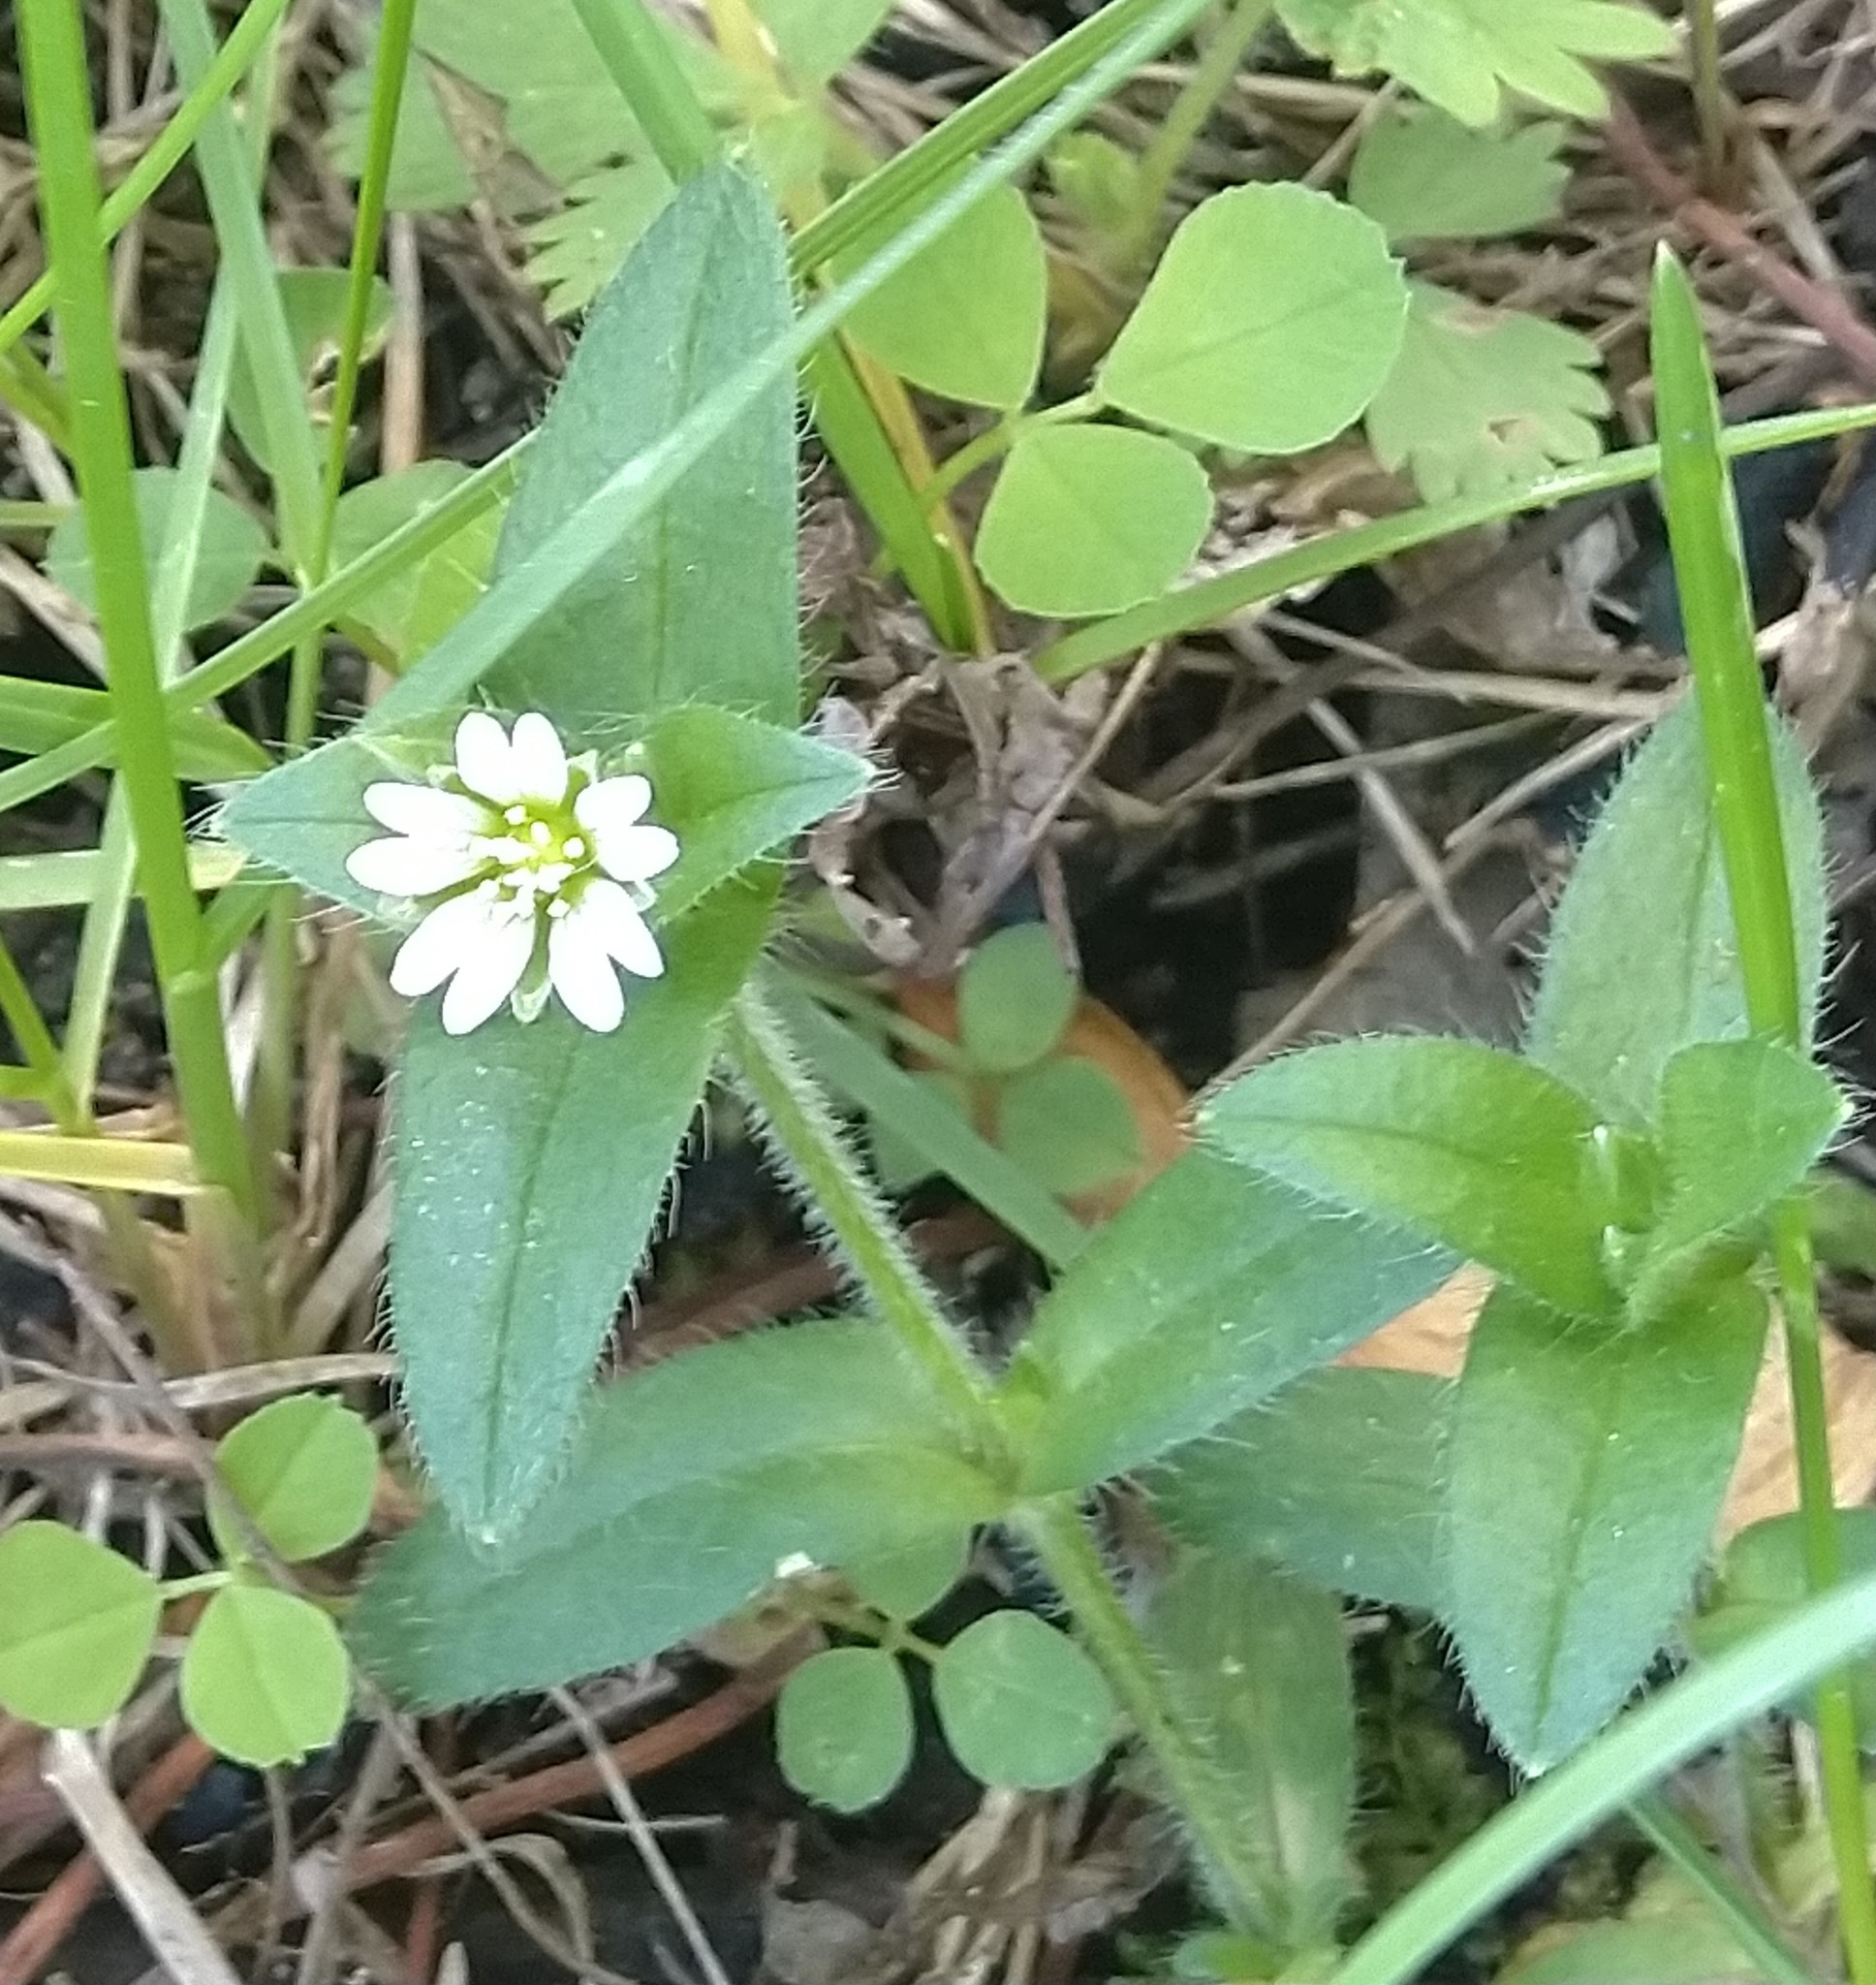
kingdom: Plantae
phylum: Tracheophyta
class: Magnoliopsida
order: Caryophyllales
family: Caryophyllaceae
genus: Cerastium
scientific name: Cerastium fontanum
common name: Common mouse-ear
